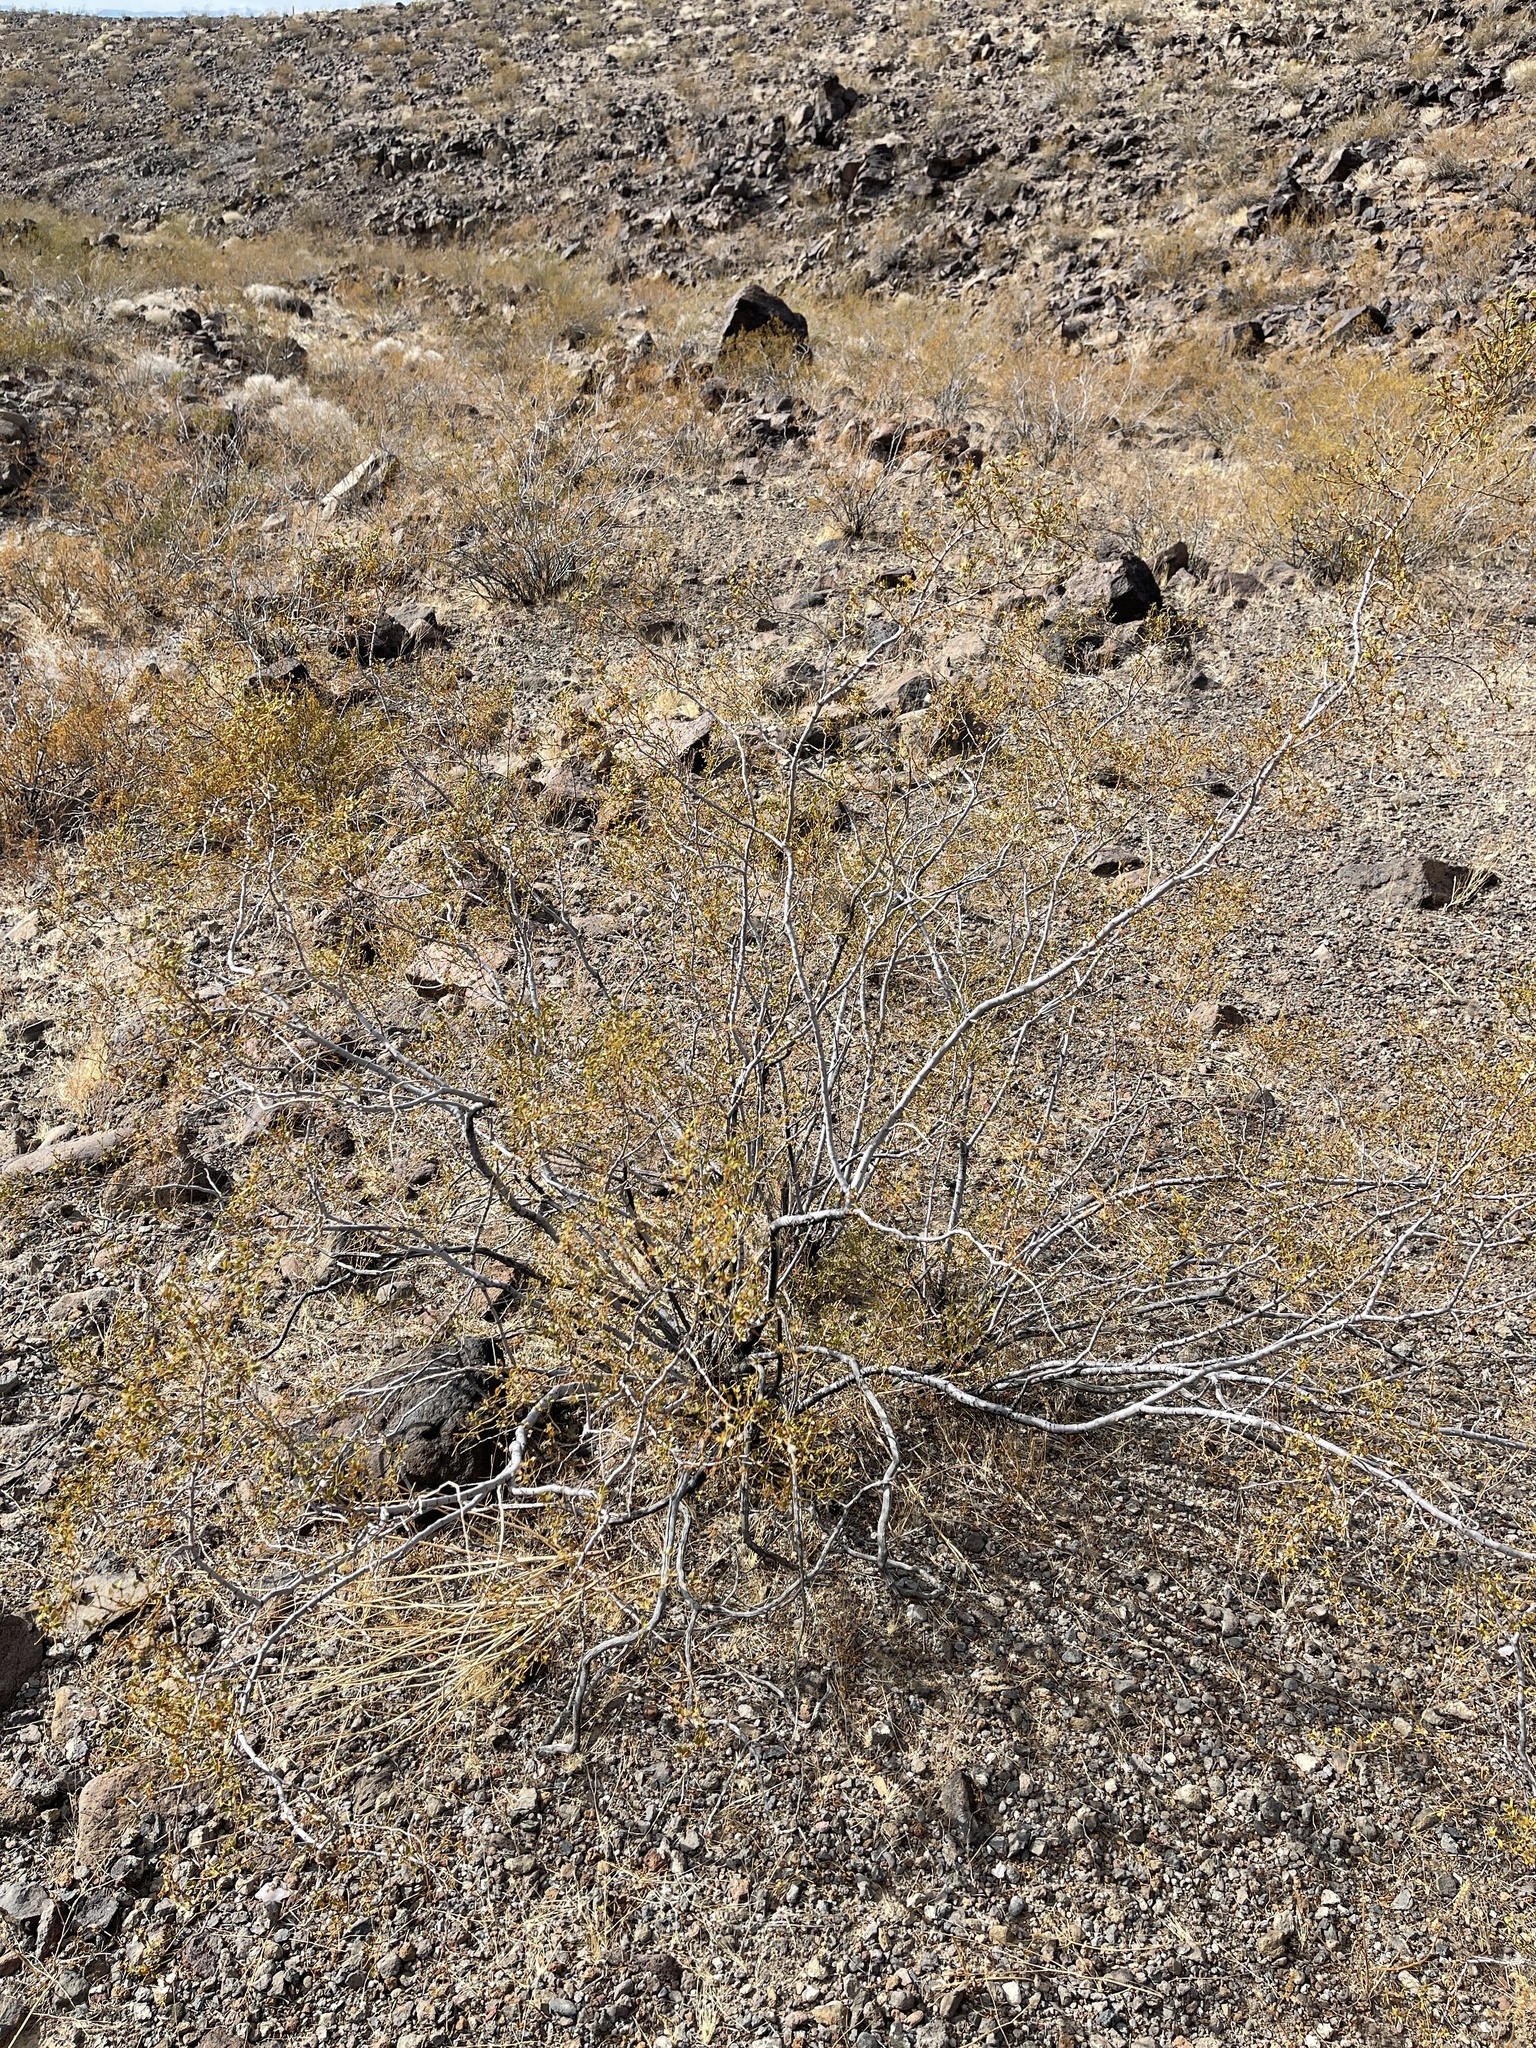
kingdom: Plantae
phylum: Tracheophyta
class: Magnoliopsida
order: Zygophyllales
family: Zygophyllaceae
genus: Larrea
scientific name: Larrea tridentata
